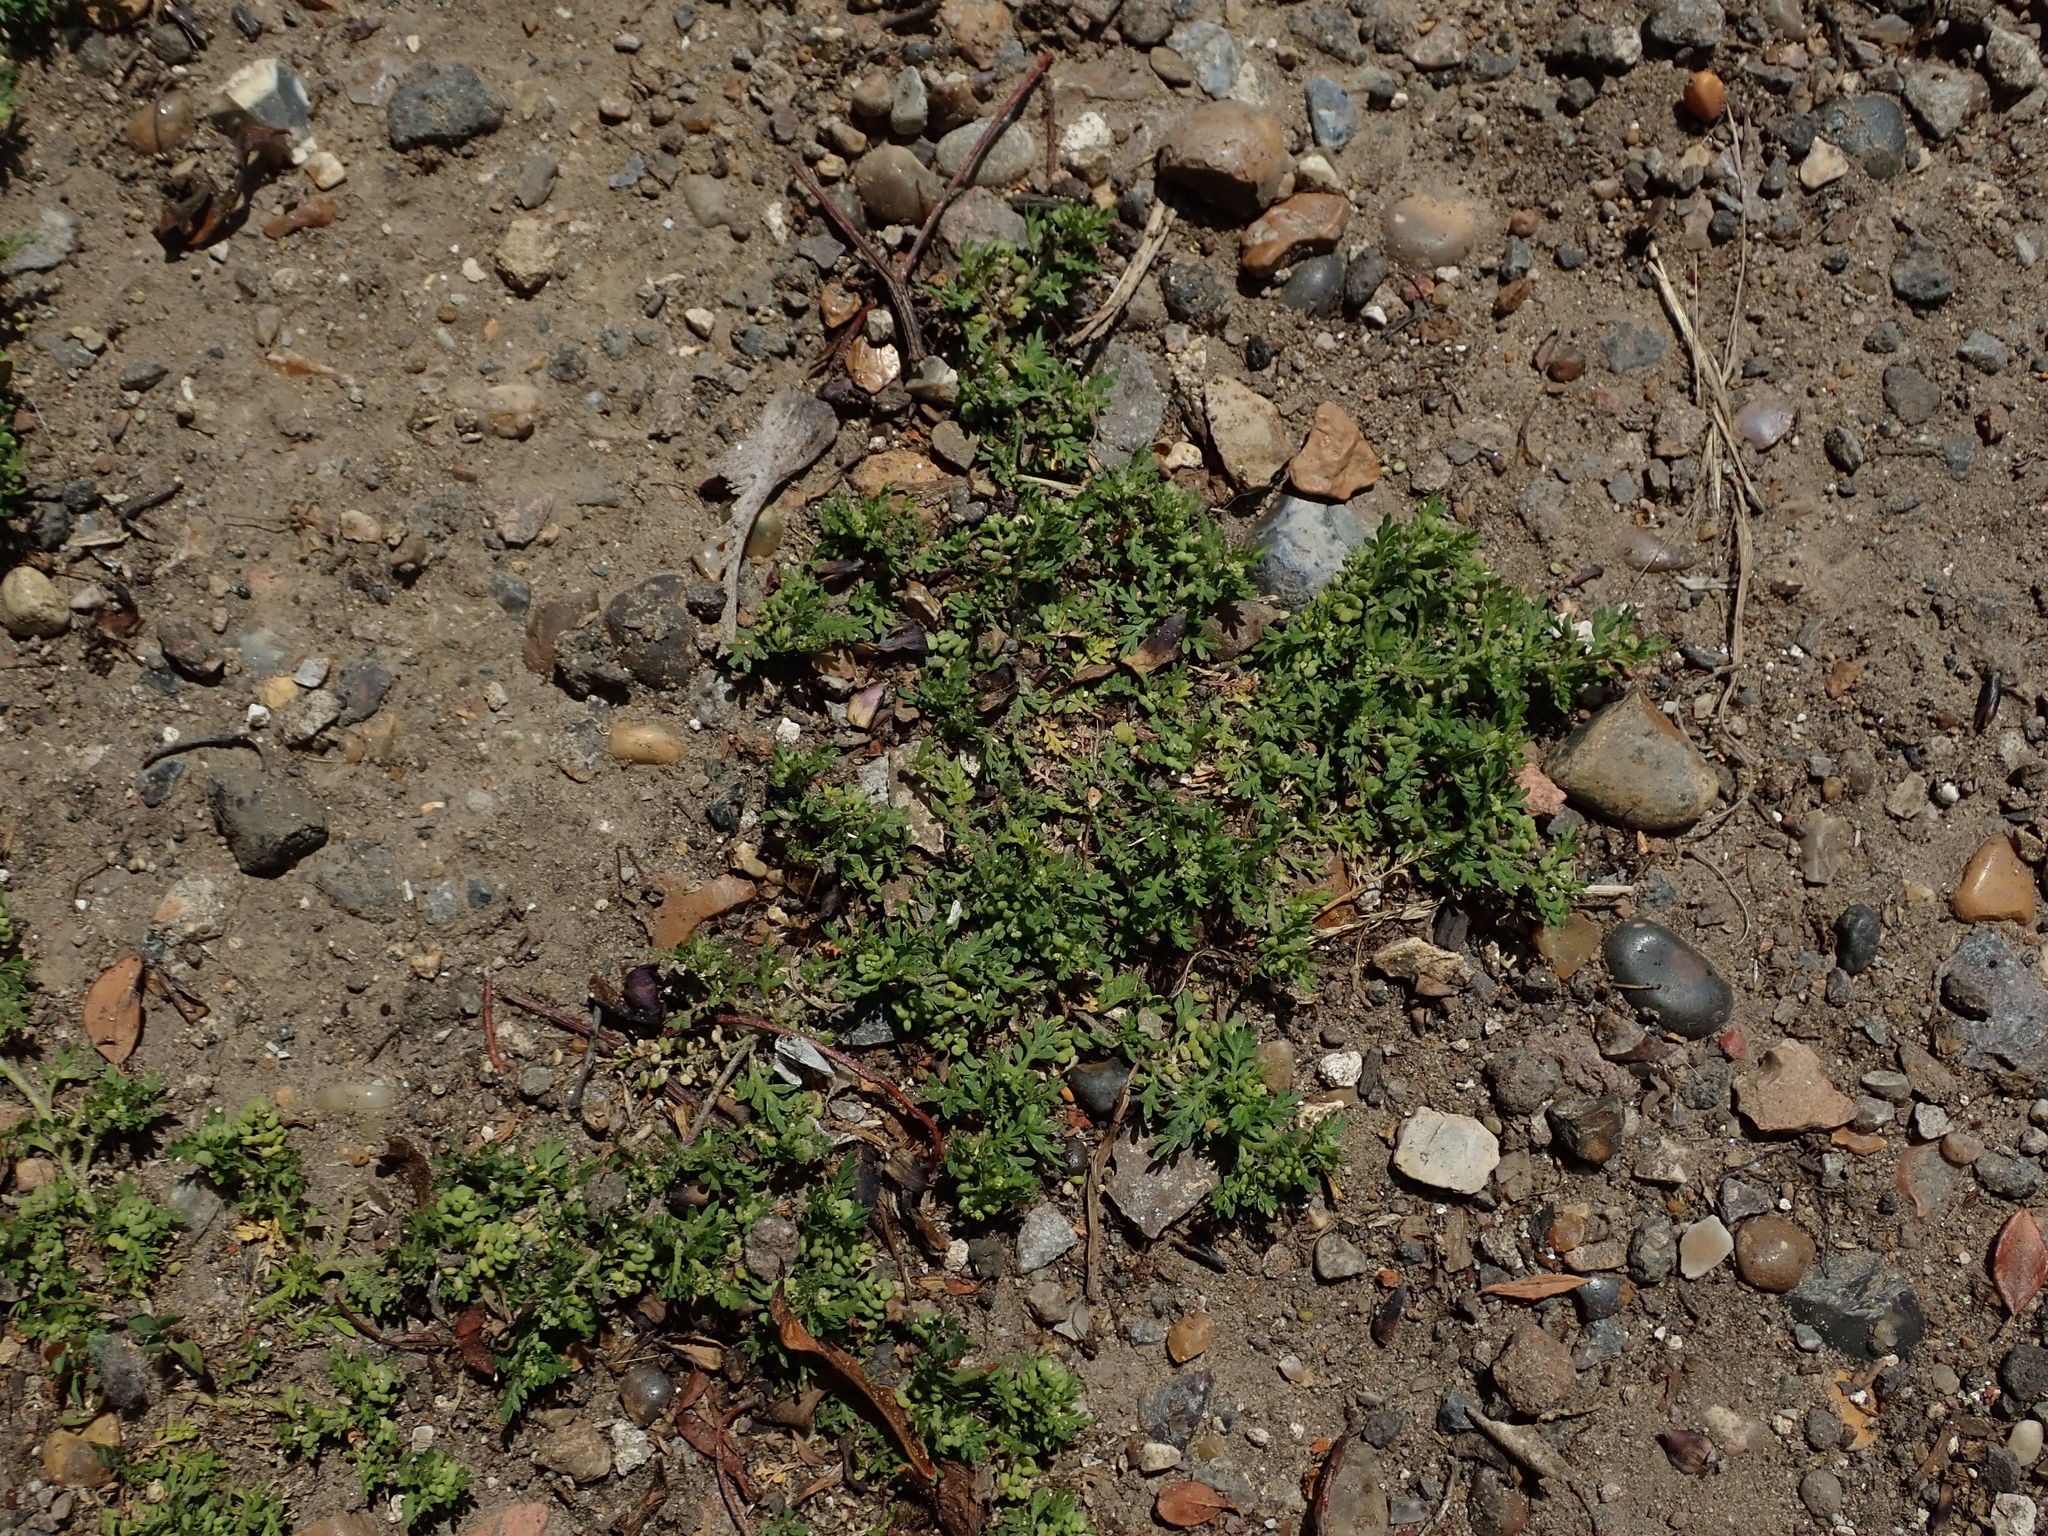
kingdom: Plantae
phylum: Tracheophyta
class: Magnoliopsida
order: Brassicales
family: Brassicaceae
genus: Lepidium
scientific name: Lepidium didymum
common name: Lesser swinecress
